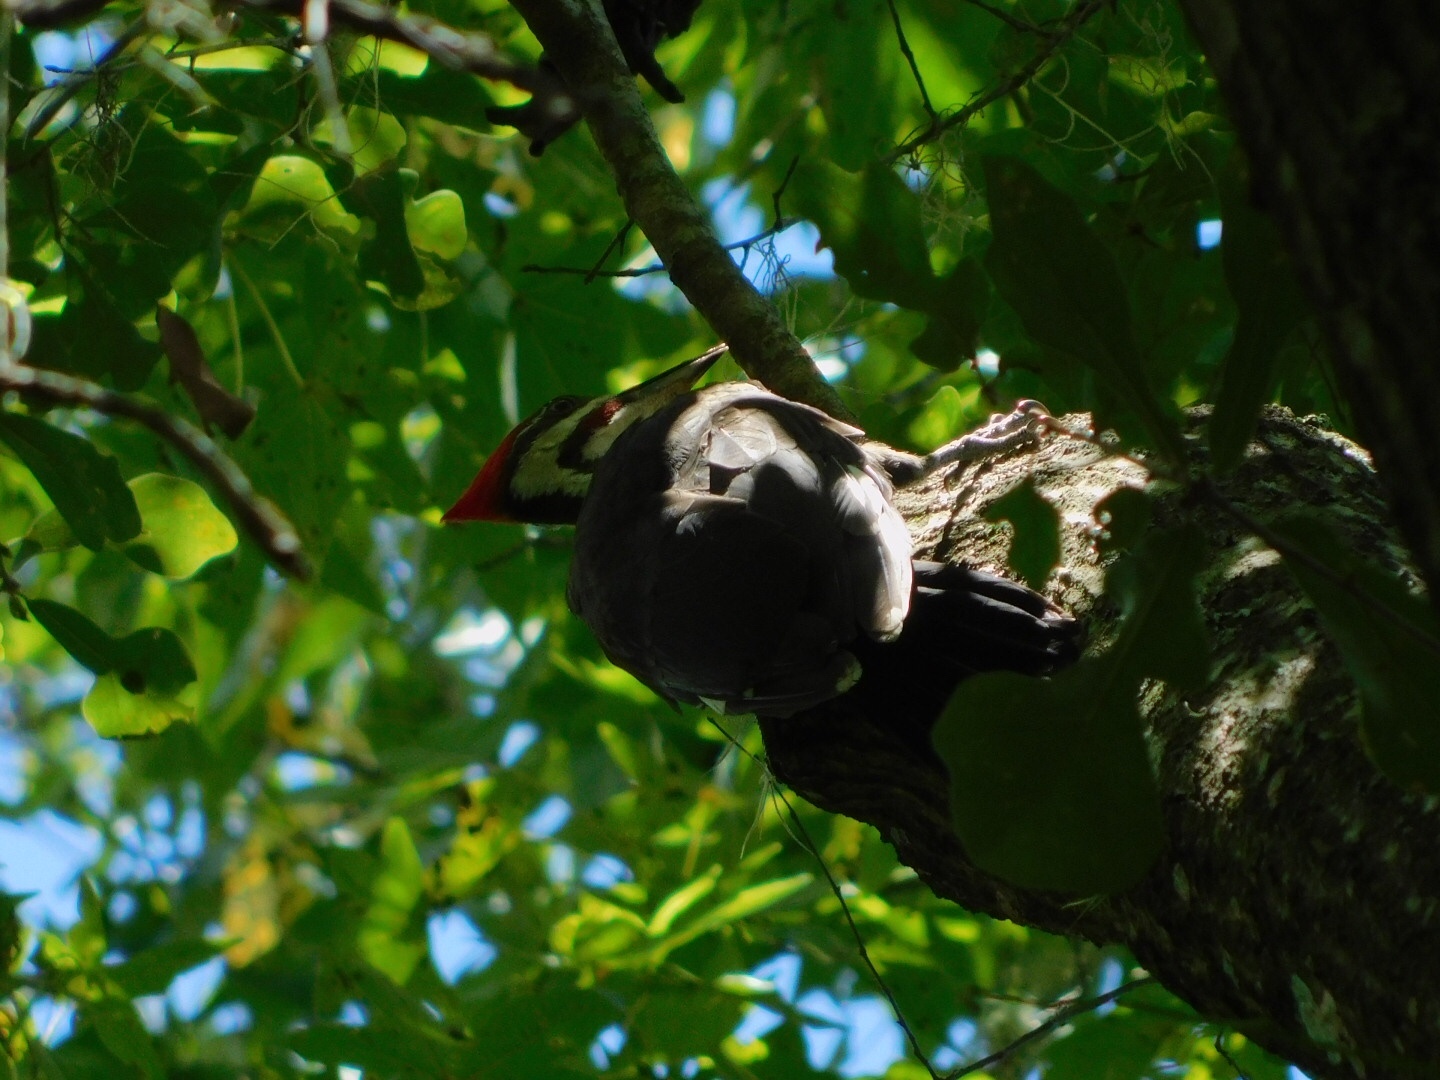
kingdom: Animalia
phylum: Chordata
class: Aves
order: Piciformes
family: Picidae
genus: Dryocopus
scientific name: Dryocopus pileatus
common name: Pileated woodpecker
